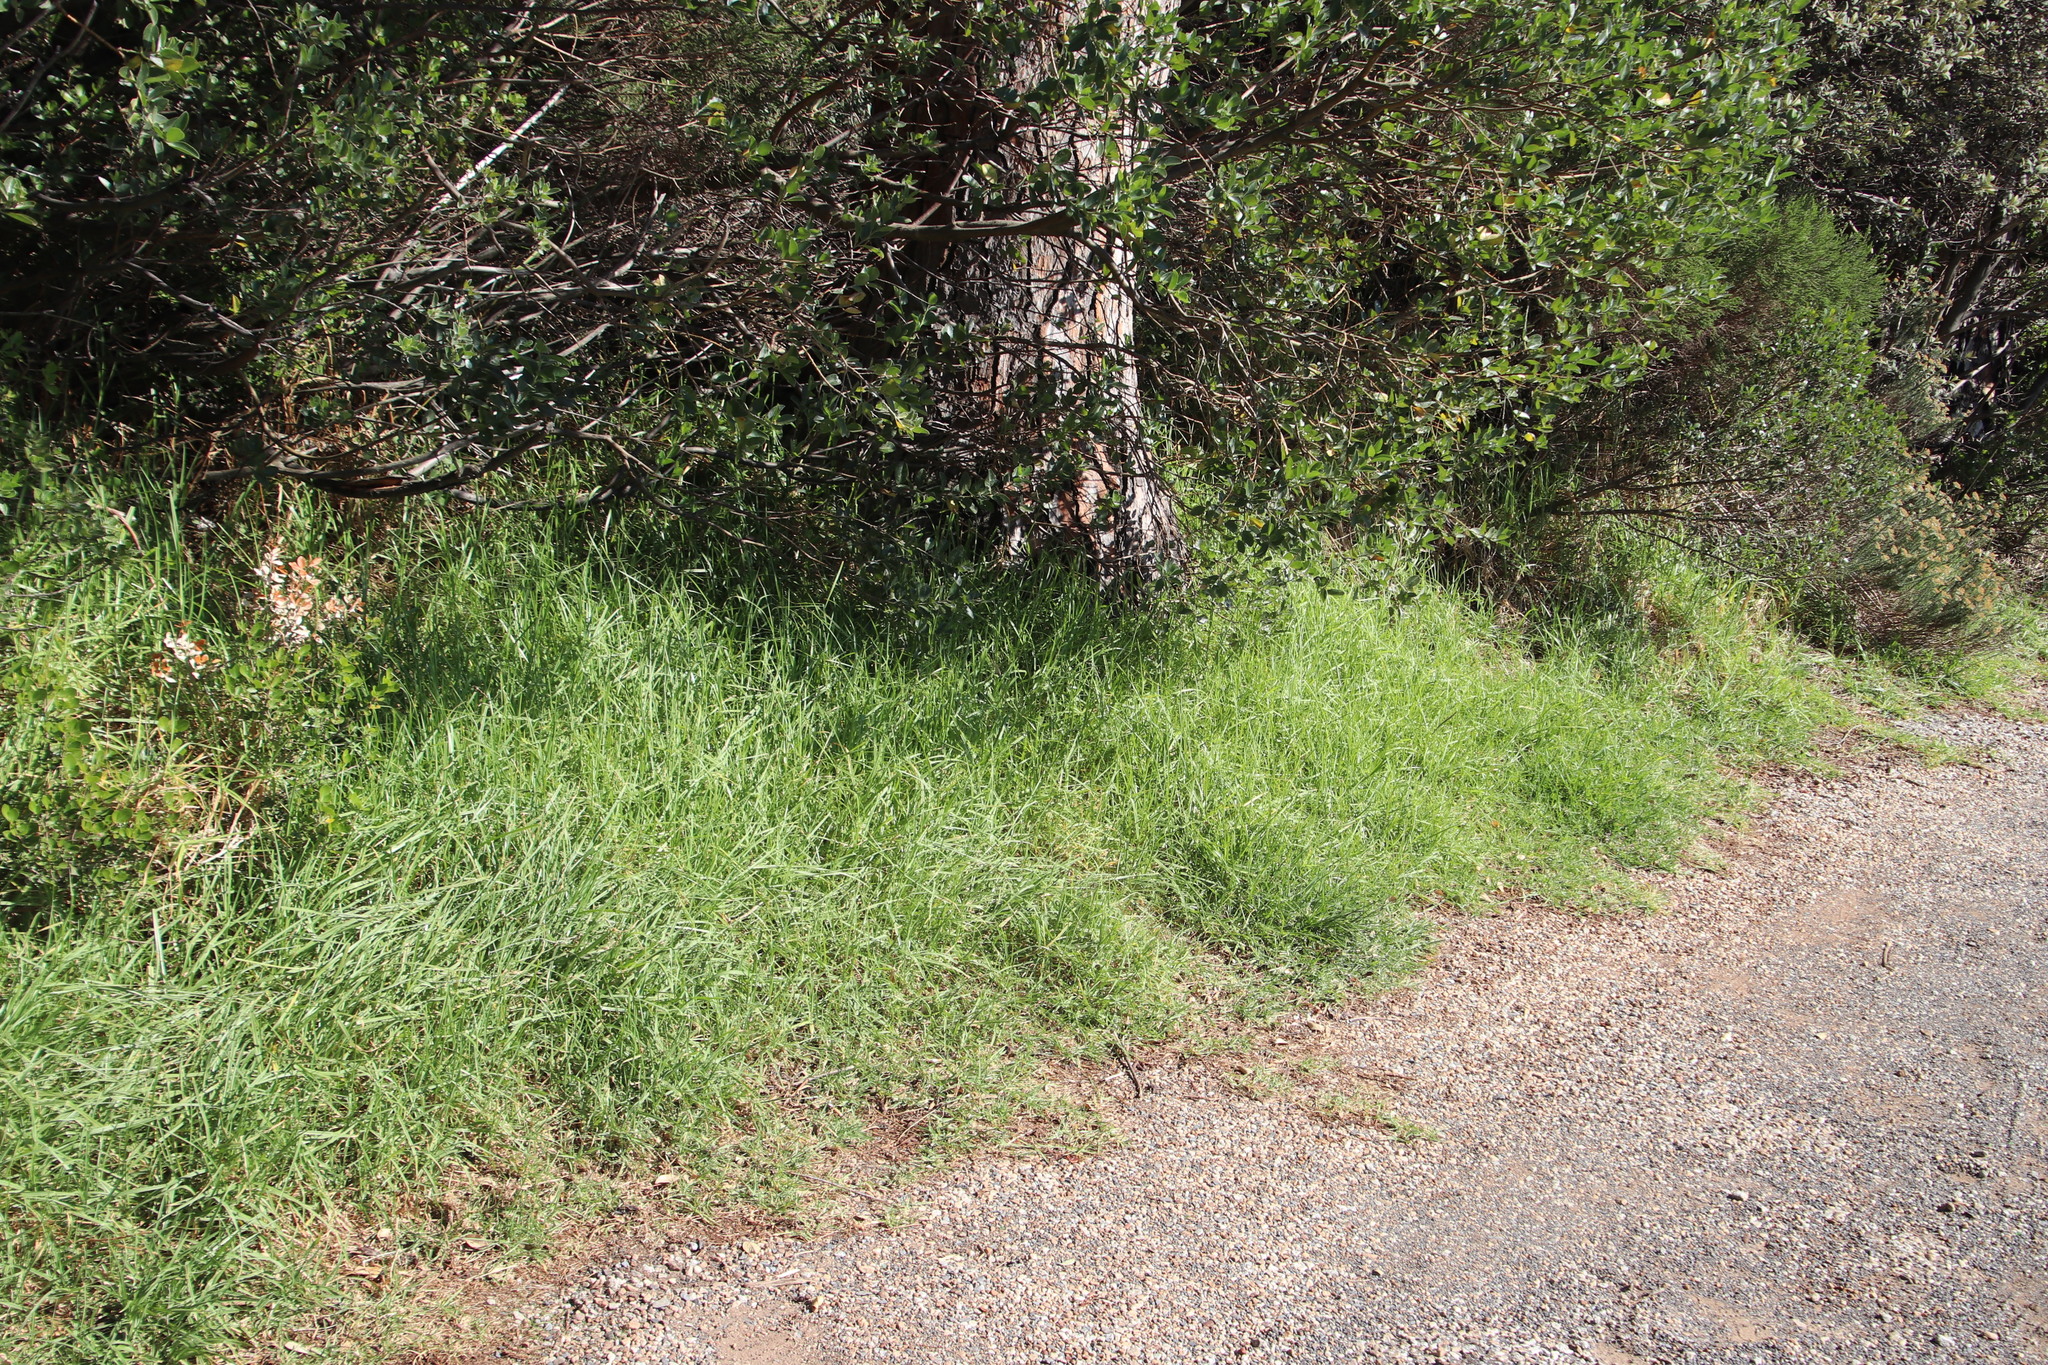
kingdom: Plantae
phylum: Tracheophyta
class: Liliopsida
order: Poales
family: Poaceae
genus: Cenchrus
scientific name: Cenchrus clandestinus
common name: Kikuyugrass
